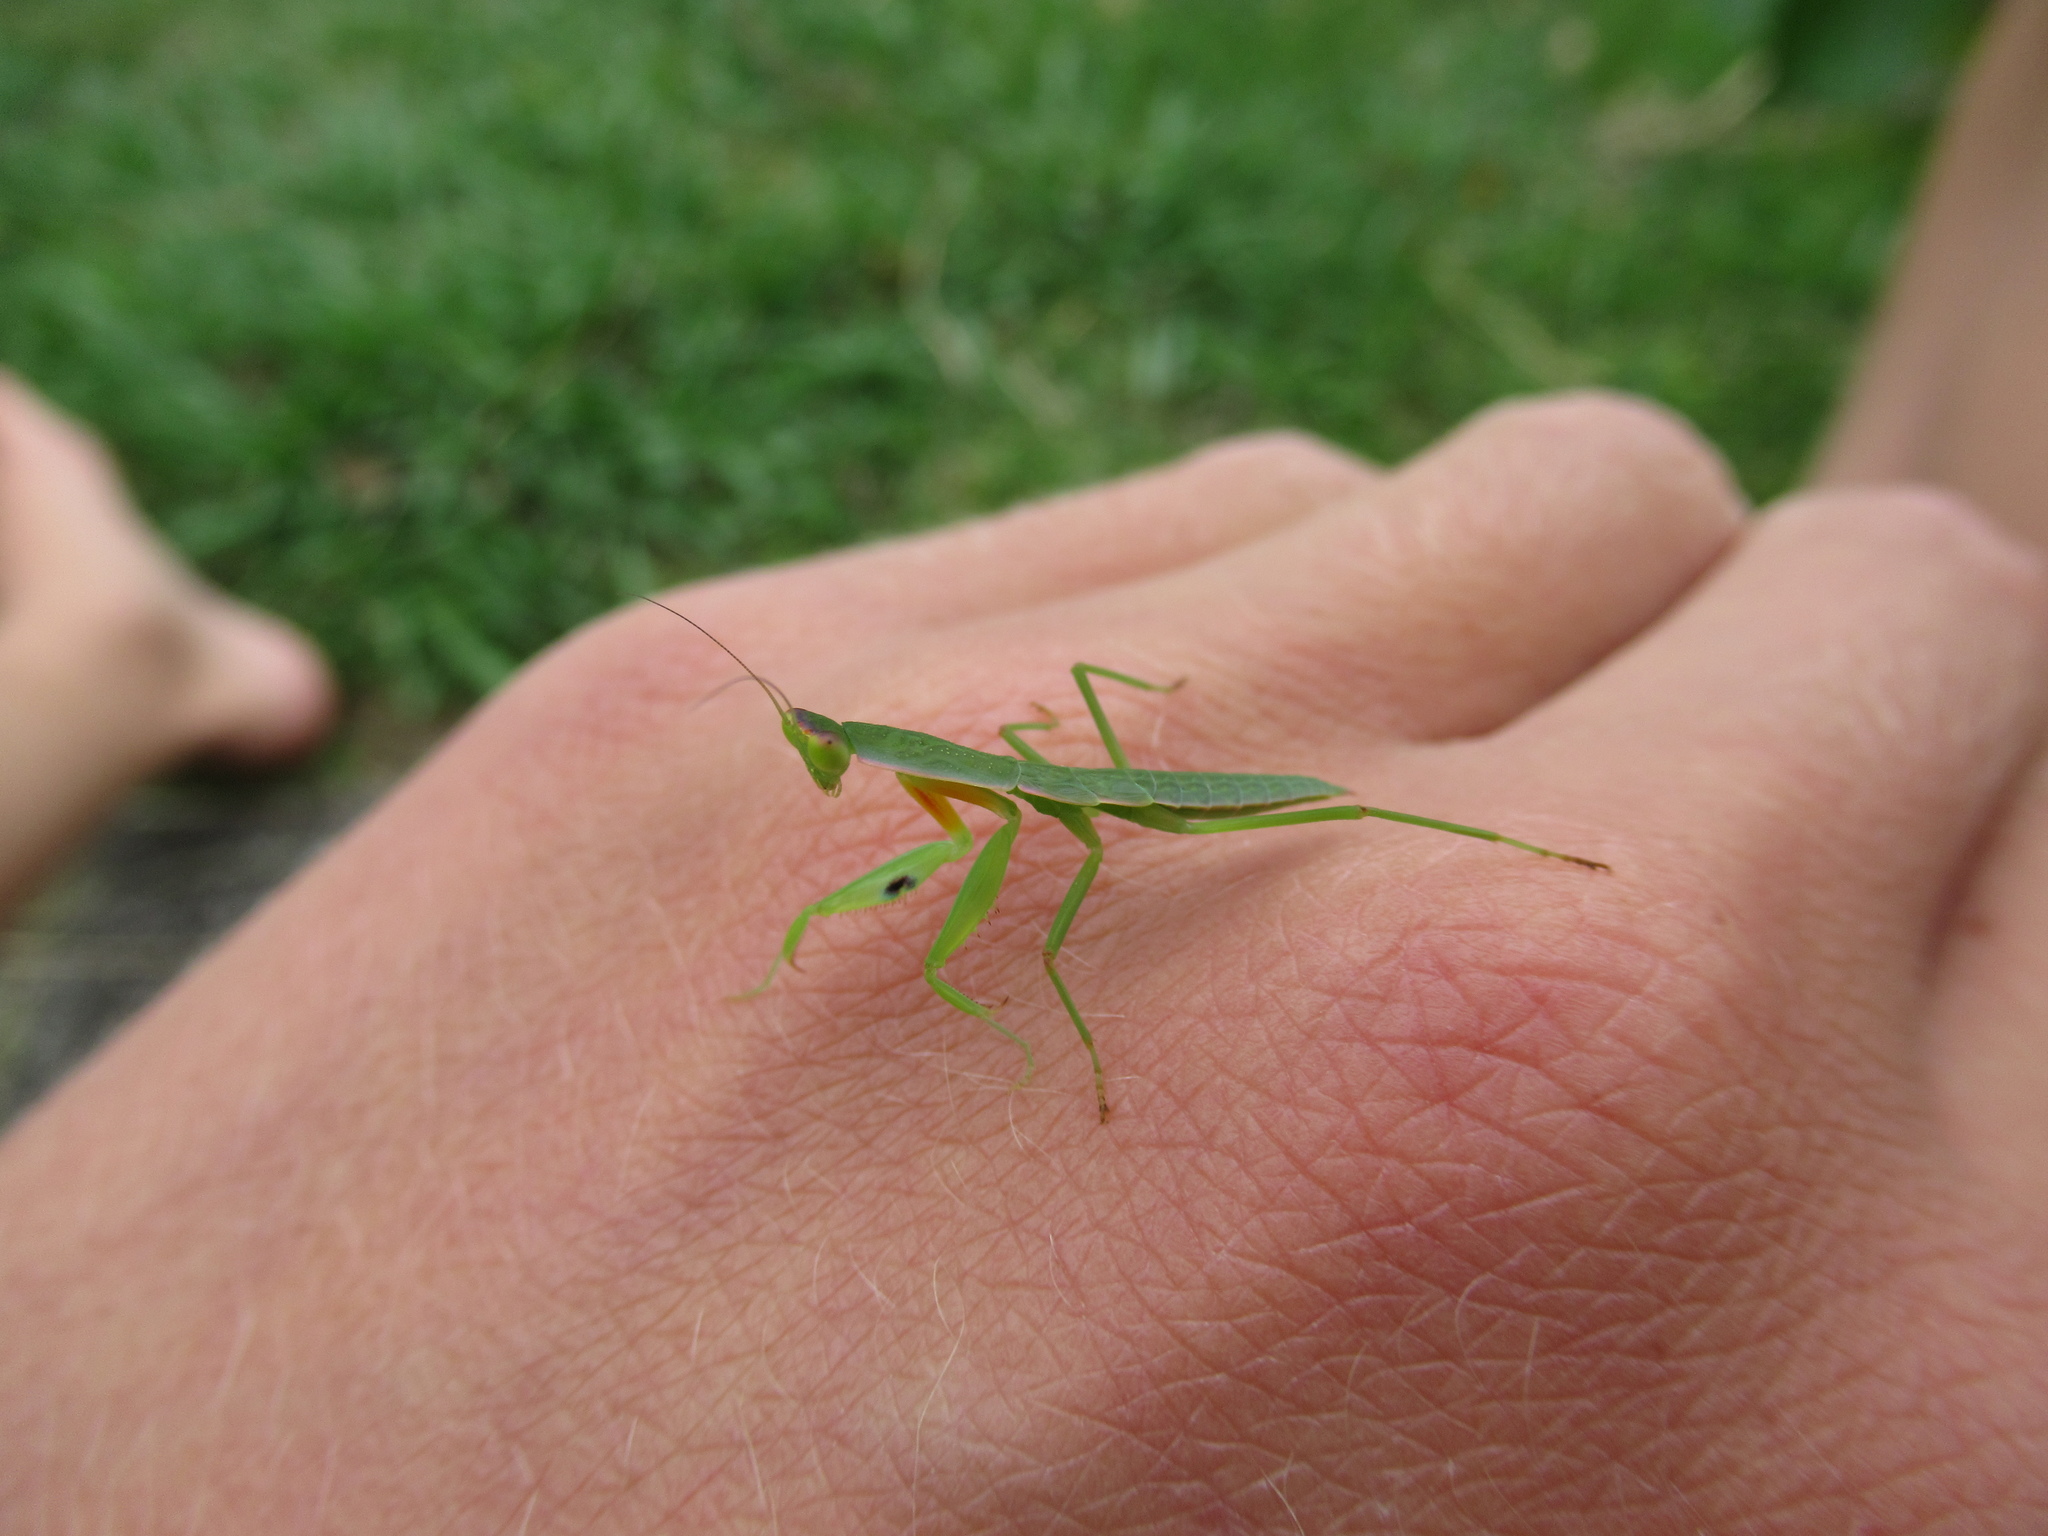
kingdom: Animalia
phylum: Arthropoda
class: Insecta
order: Mantodea
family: Mantidae
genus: Orthodera
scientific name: Orthodera novaezealandiae
